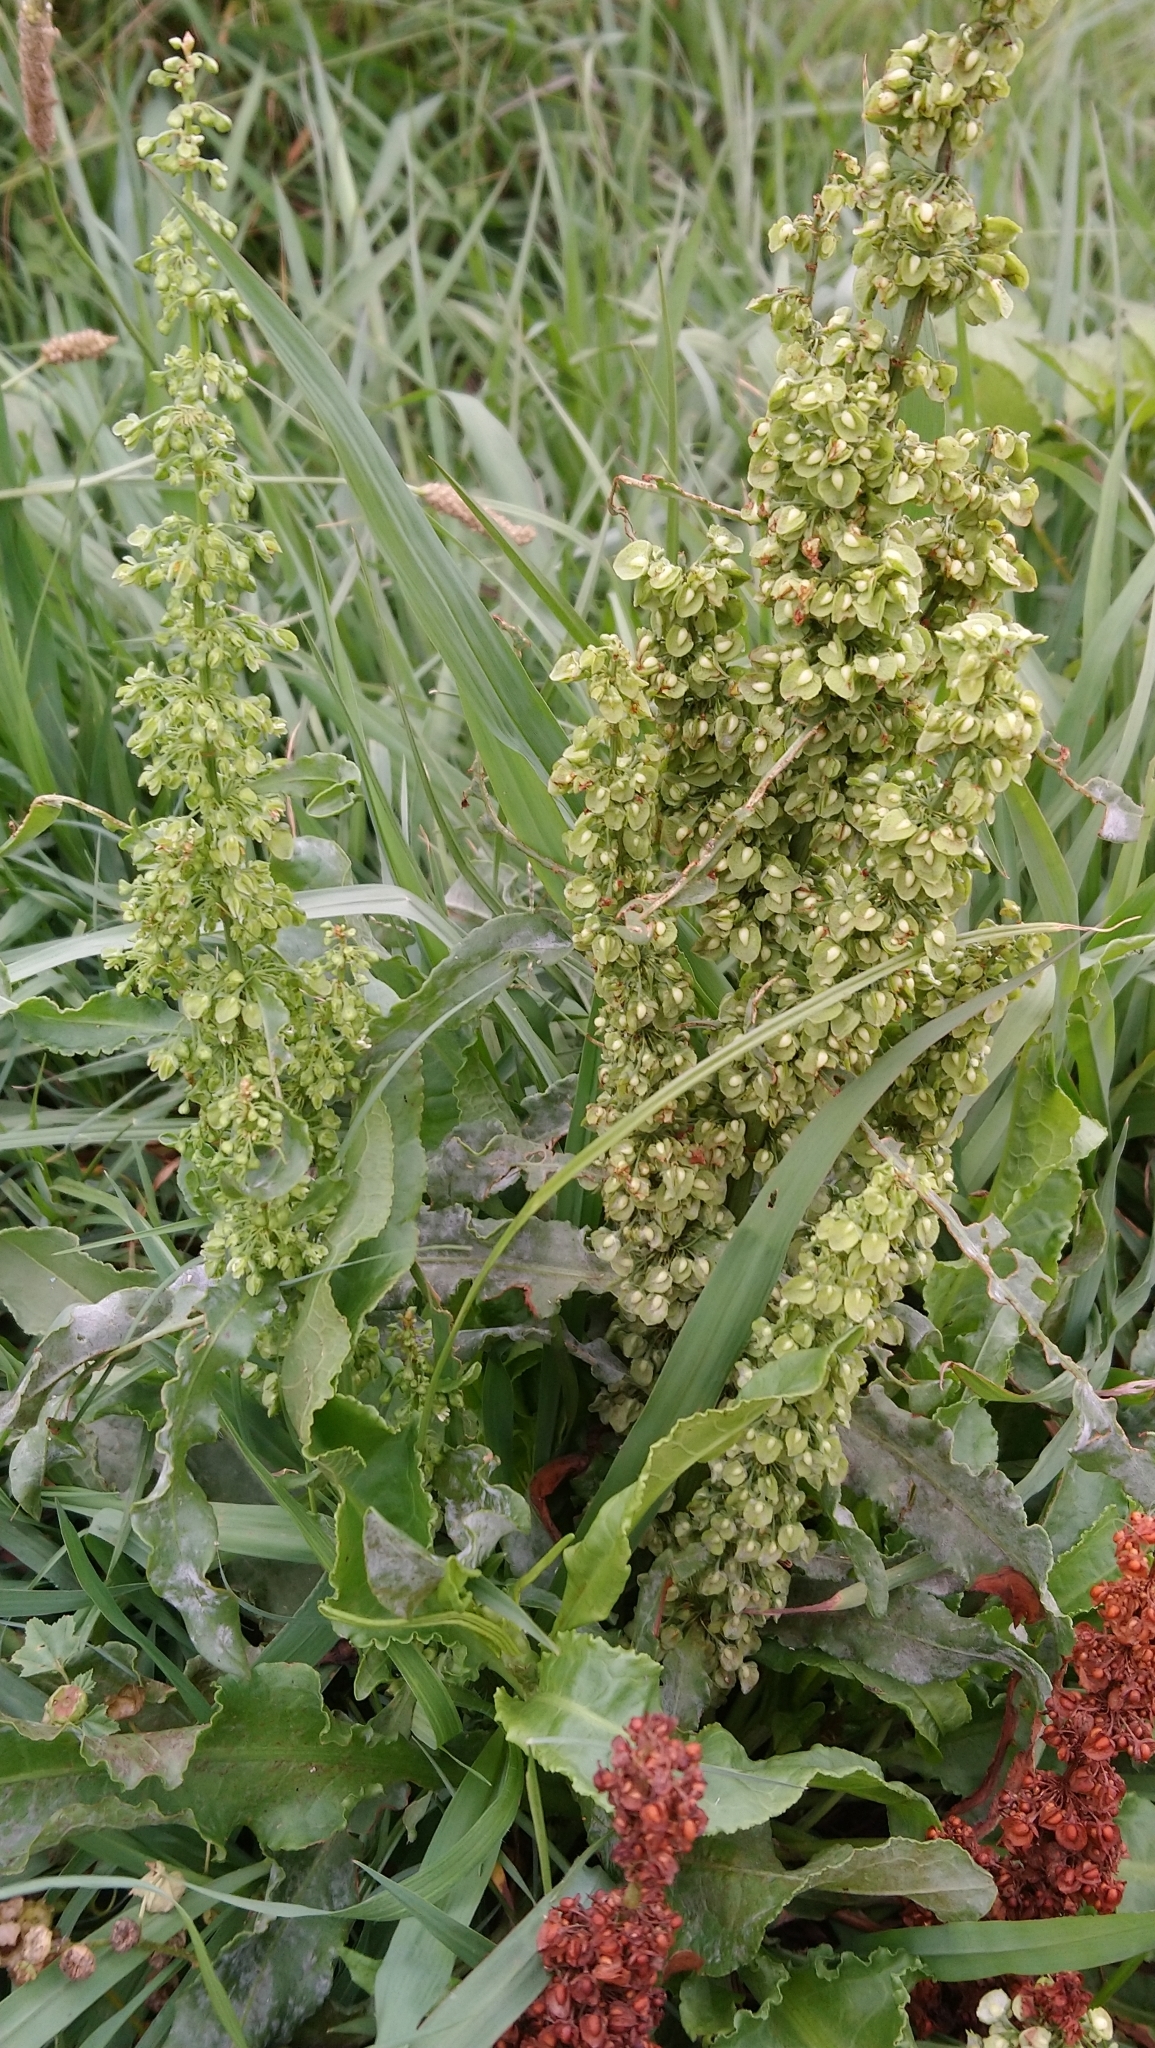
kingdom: Plantae
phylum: Tracheophyta
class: Magnoliopsida
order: Caryophyllales
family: Polygonaceae
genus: Rumex
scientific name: Rumex crispus
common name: Curled dock
